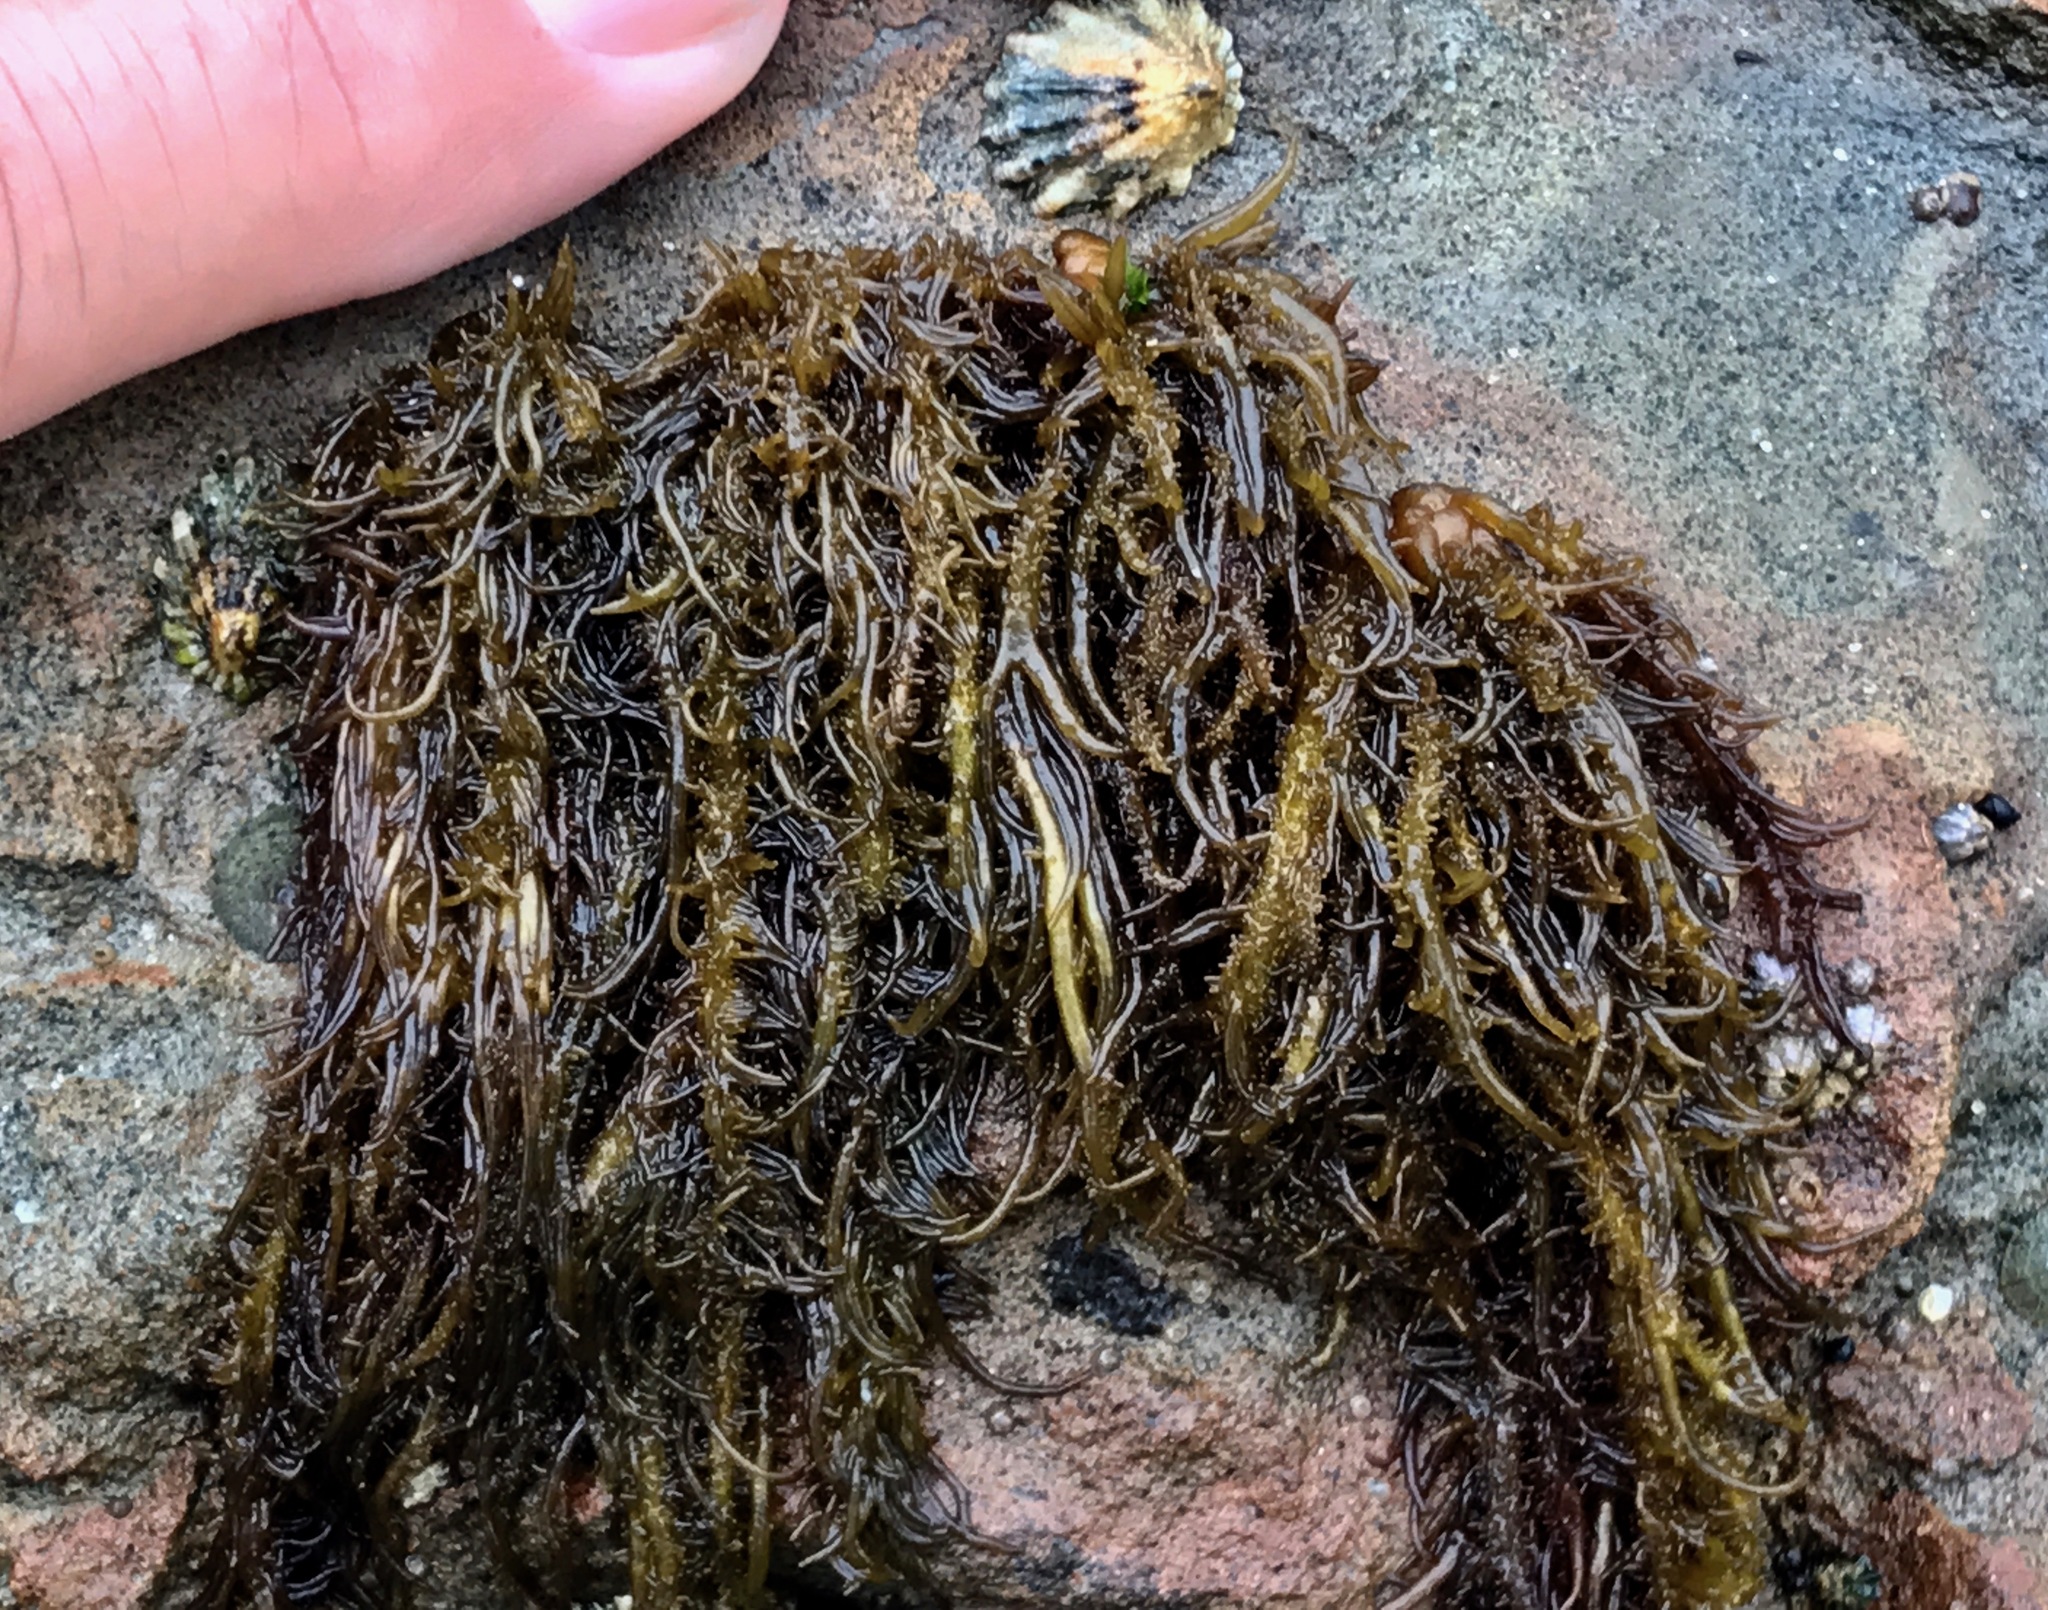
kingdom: Plantae
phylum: Rhodophyta
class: Florideophyceae
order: Nemaliales
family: Liagoraceae
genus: Cumagloia
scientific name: Cumagloia andersonii
